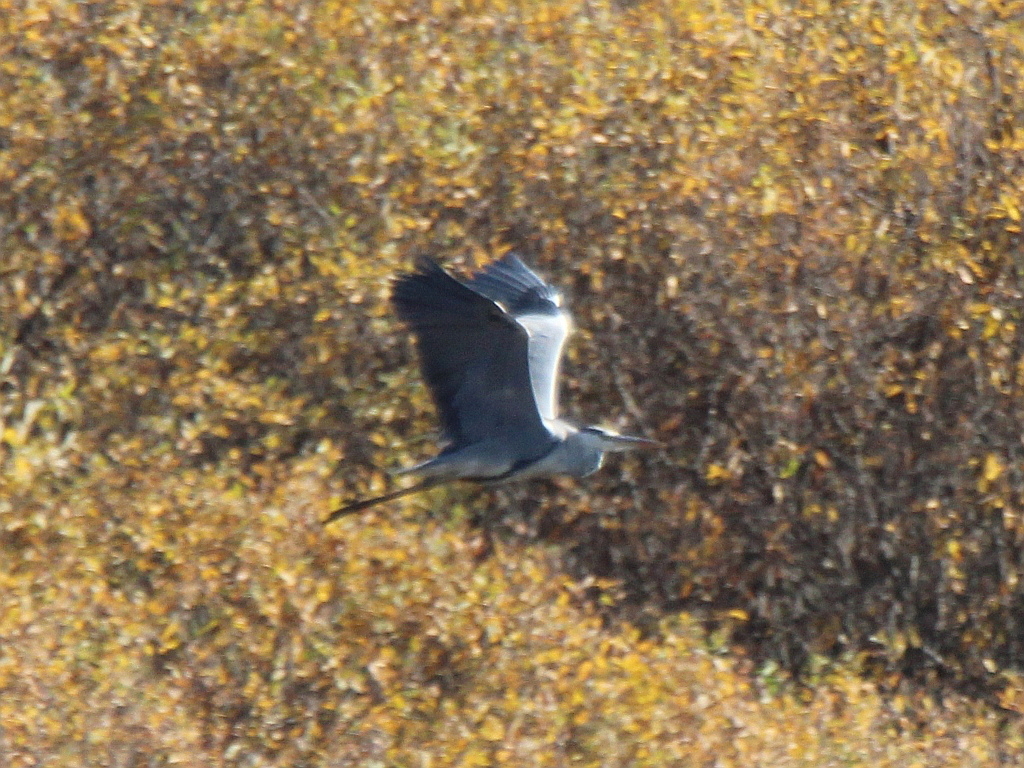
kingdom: Animalia
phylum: Chordata
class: Aves
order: Pelecaniformes
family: Ardeidae
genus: Ardea
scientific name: Ardea cinerea
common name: Grey heron
